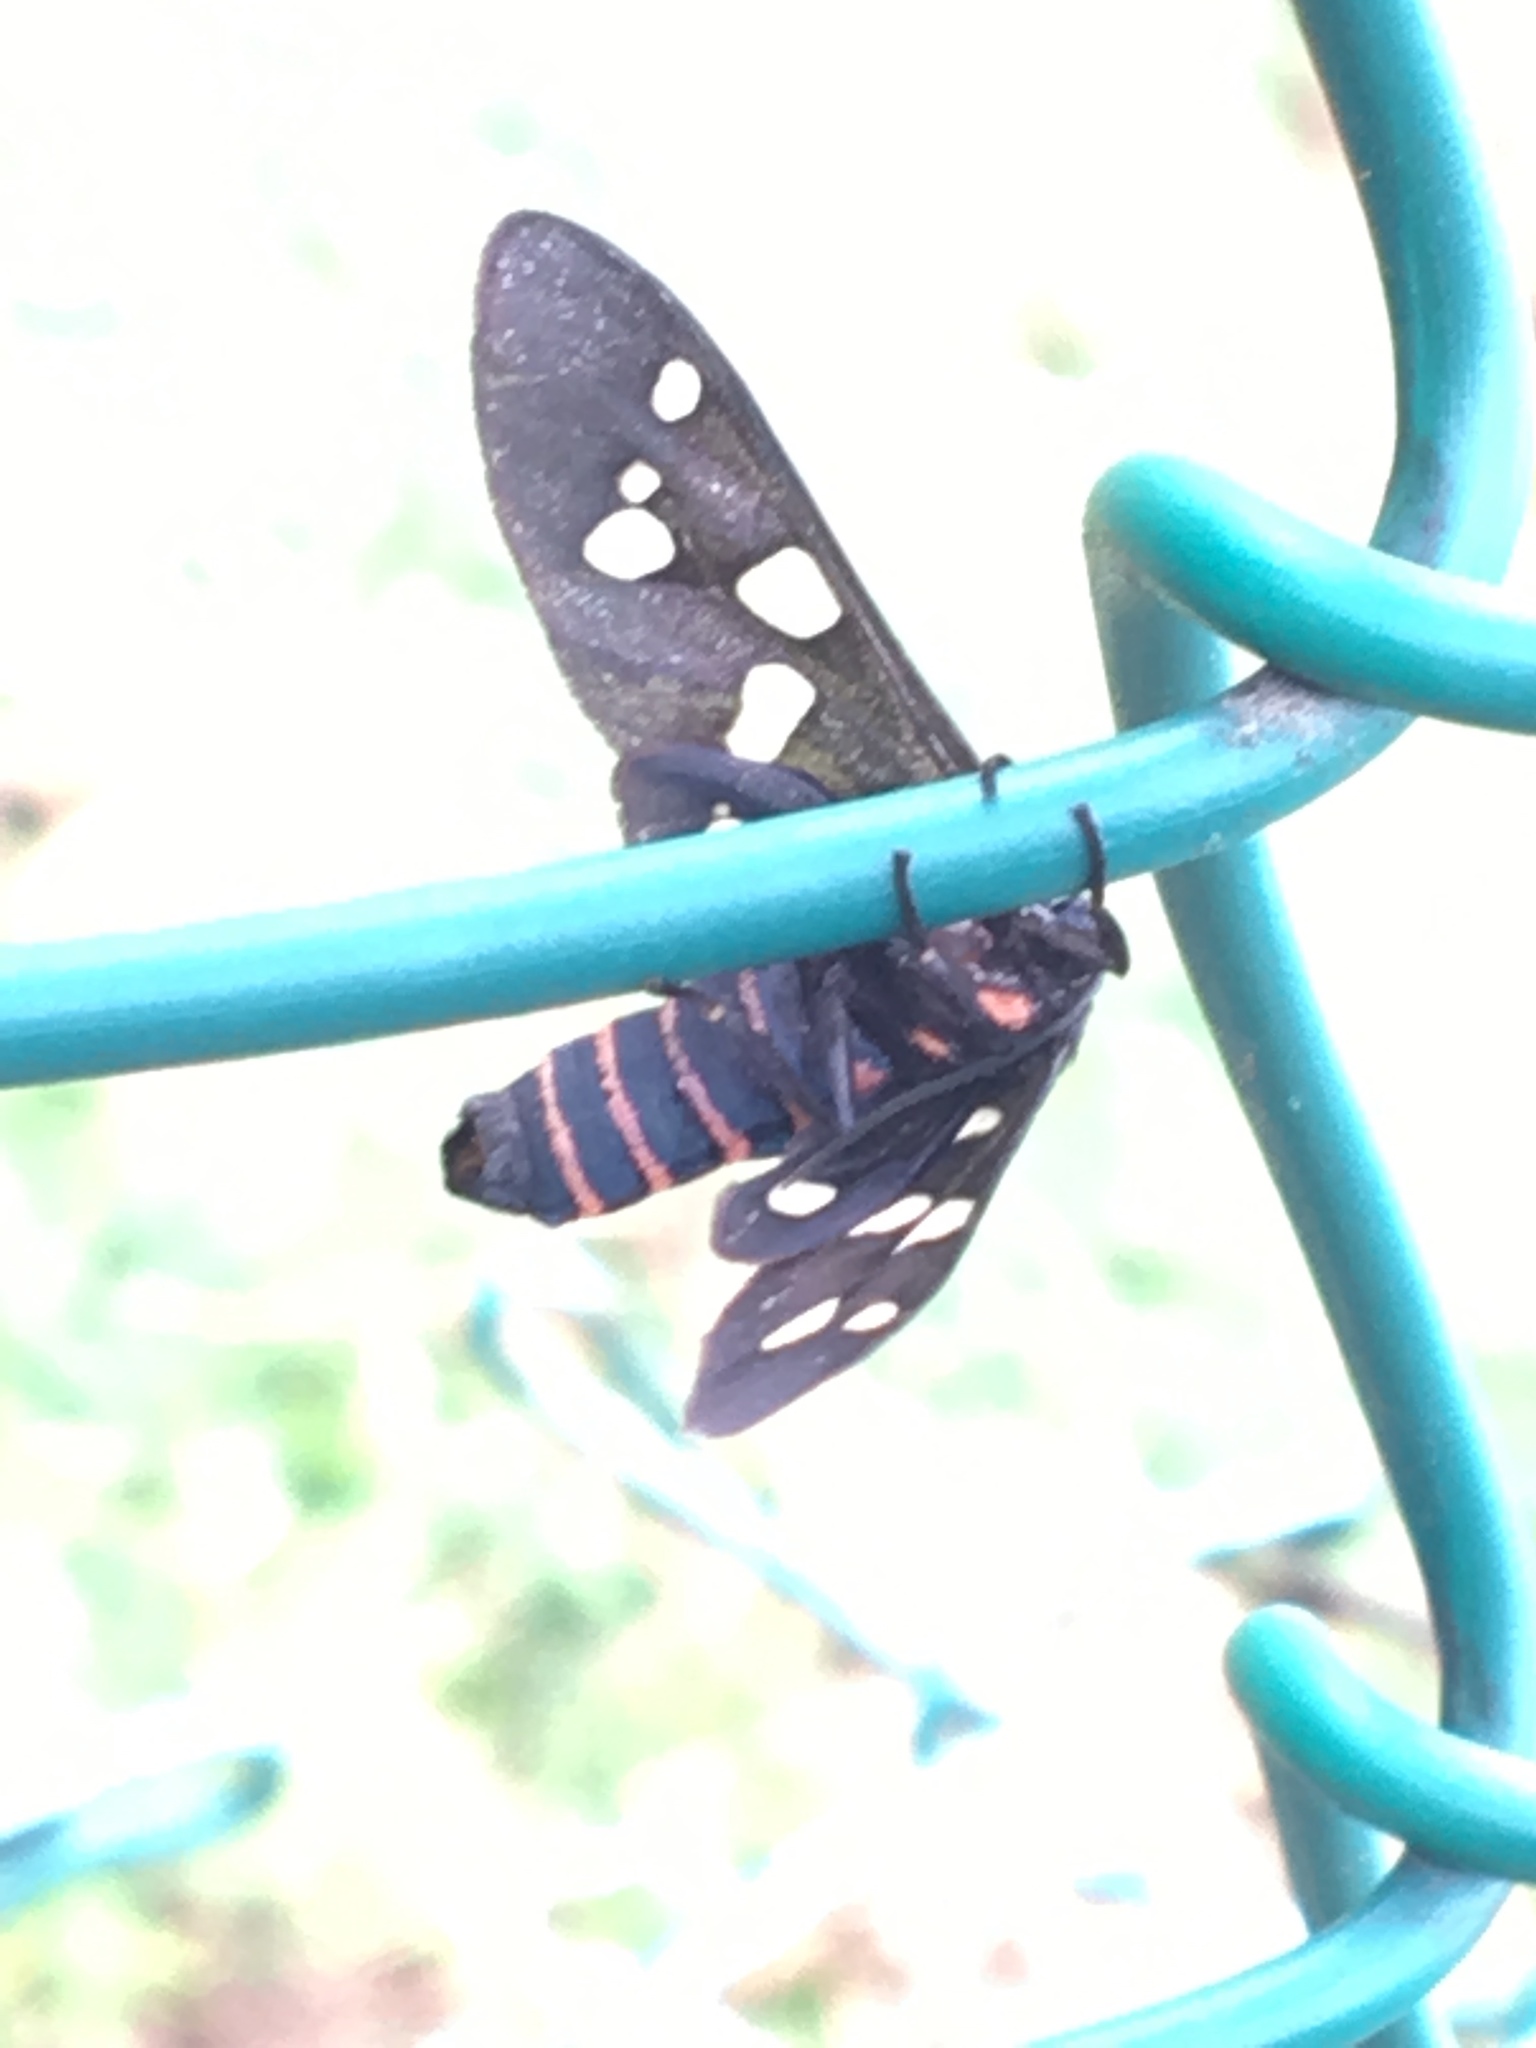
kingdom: Animalia
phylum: Arthropoda
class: Insecta
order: Lepidoptera
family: Erebidae
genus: Amata
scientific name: Amata passalis
